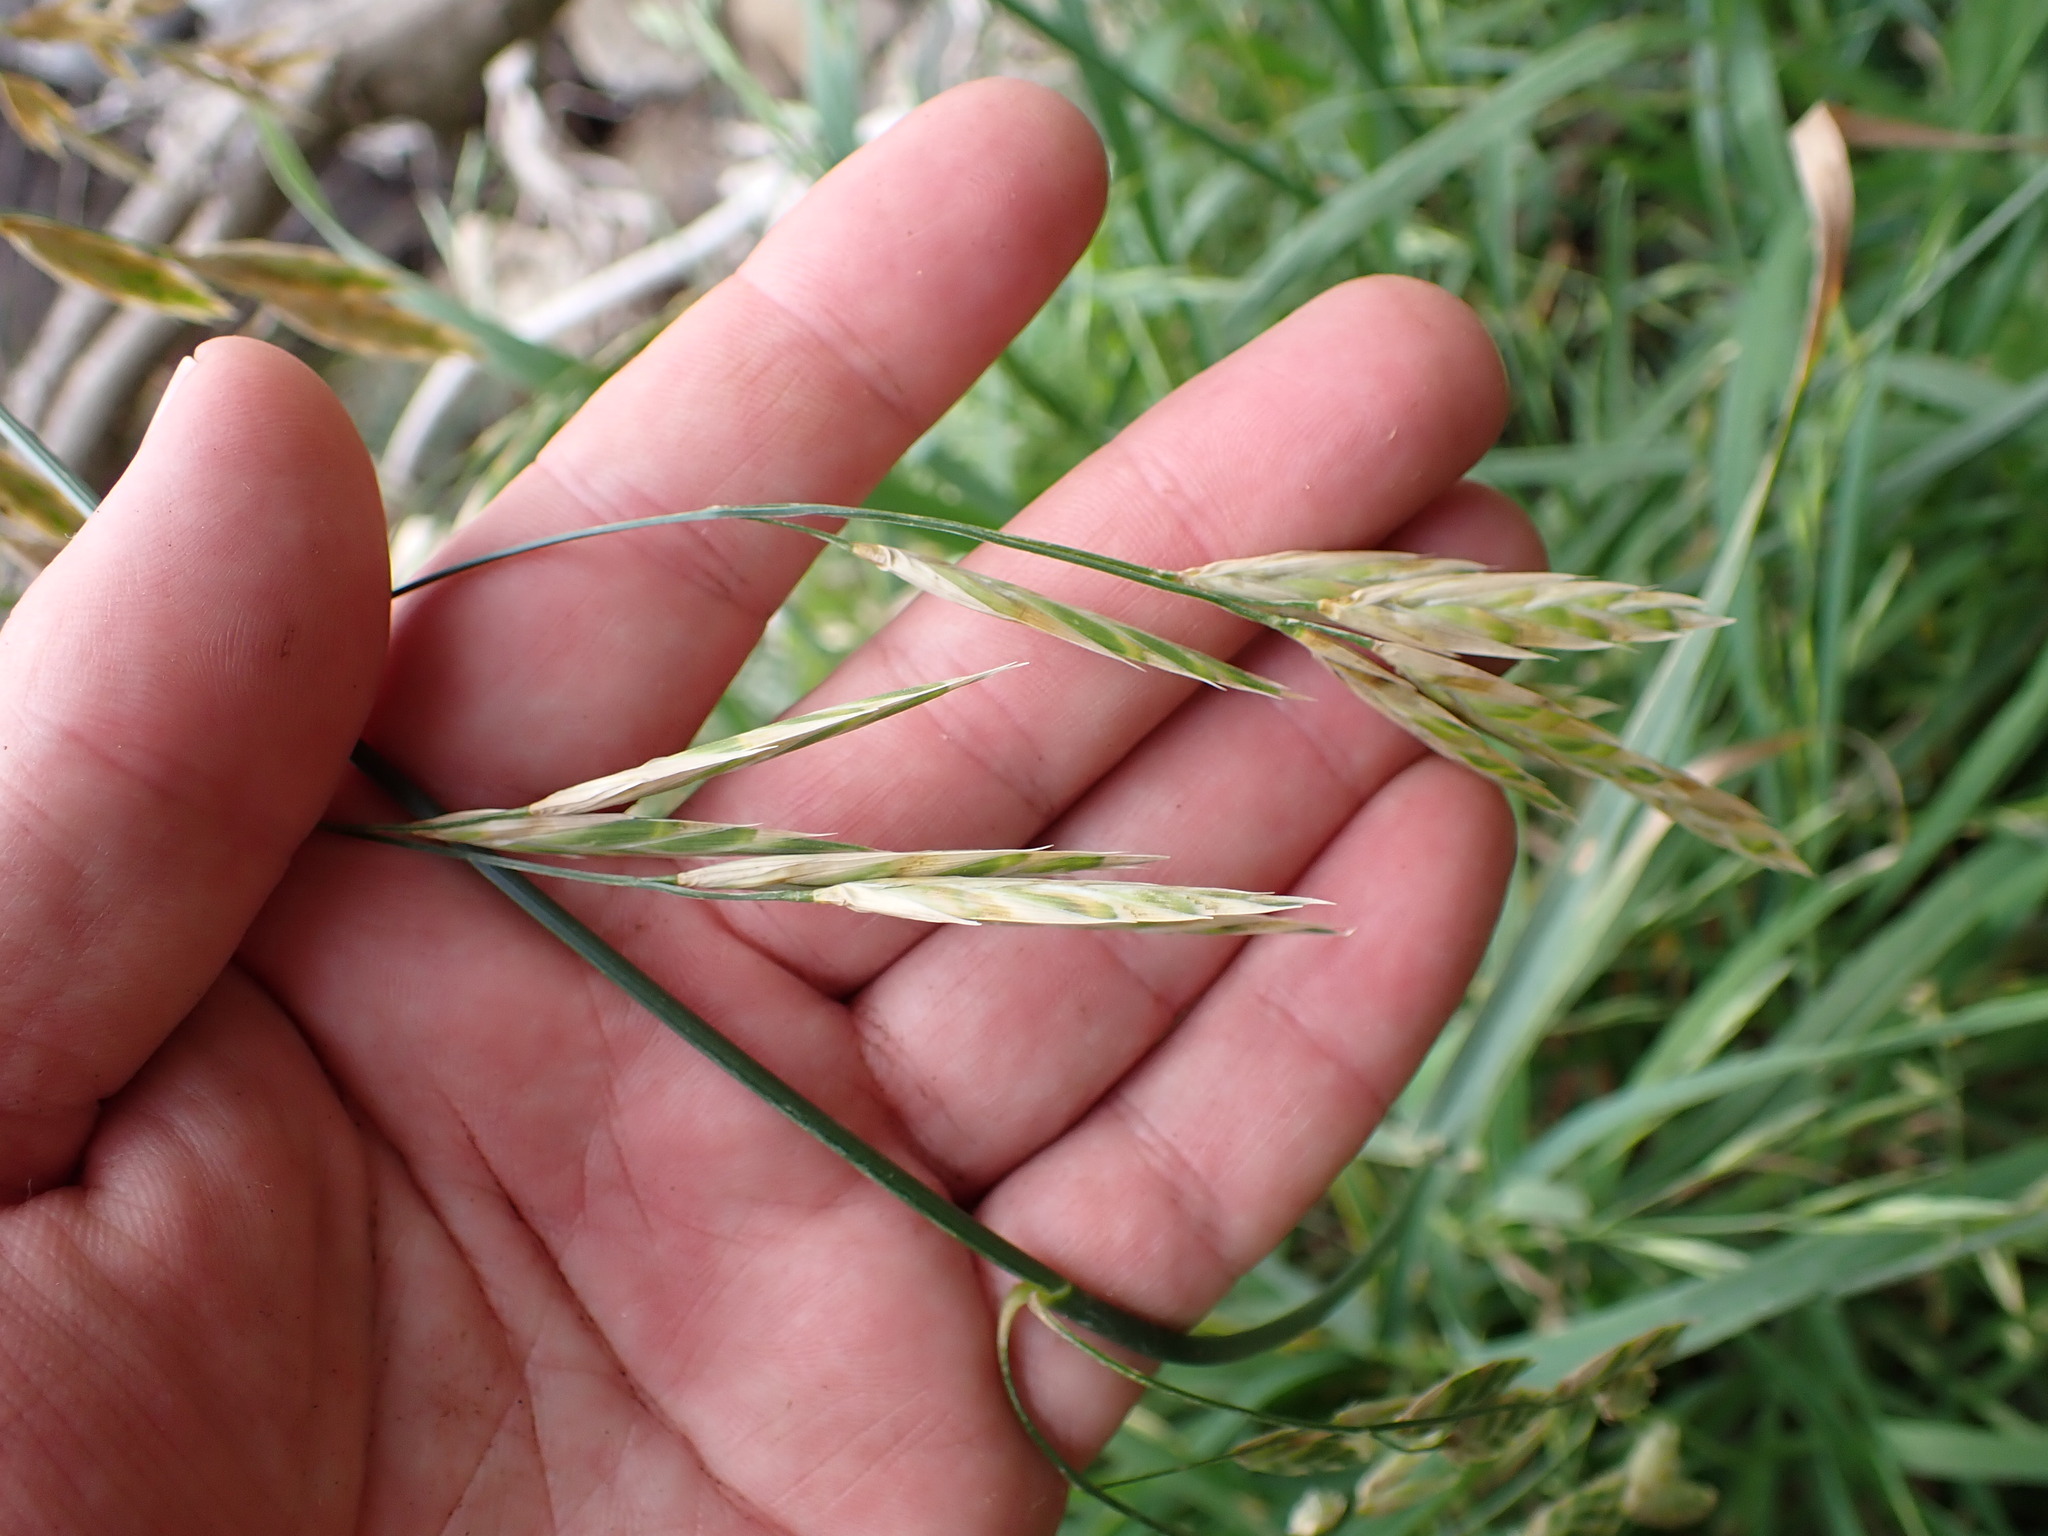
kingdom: Plantae
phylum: Tracheophyta
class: Liliopsida
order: Poales
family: Poaceae
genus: Bromus
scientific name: Bromus catharticus
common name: Rescuegrass
